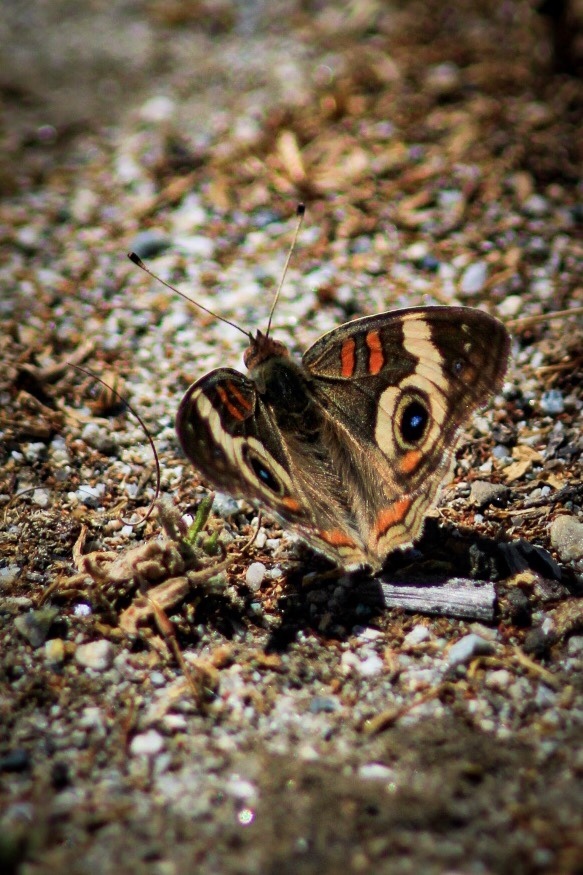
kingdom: Animalia
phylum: Arthropoda
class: Insecta
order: Lepidoptera
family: Nymphalidae
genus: Junonia
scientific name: Junonia grisea
